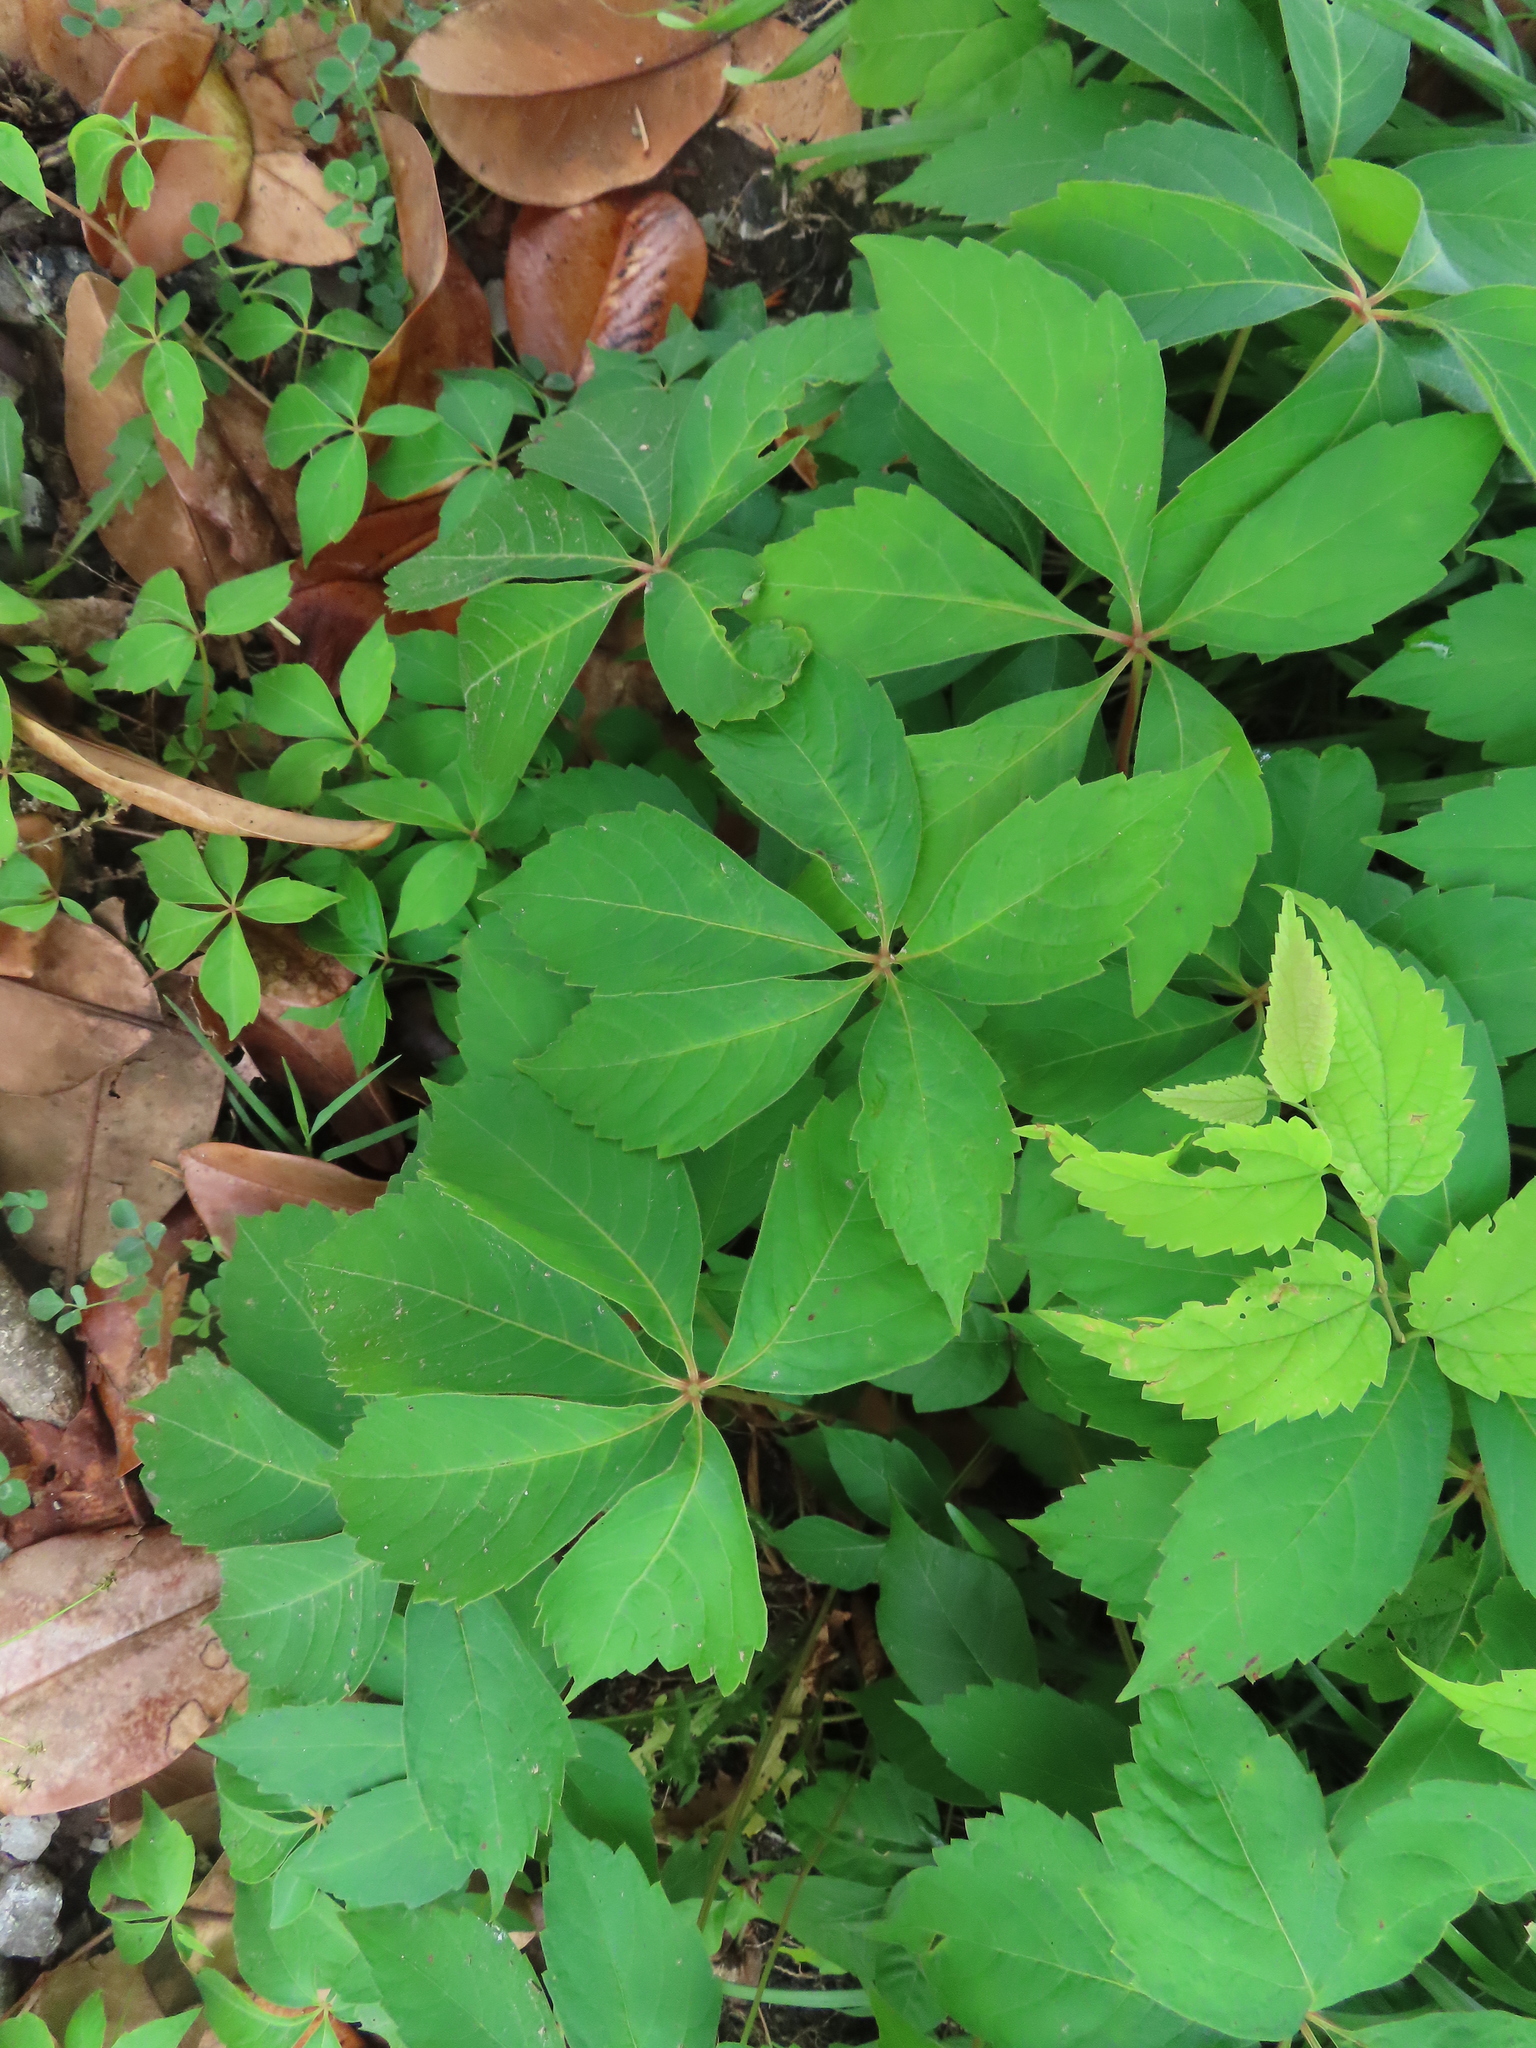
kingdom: Plantae
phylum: Tracheophyta
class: Magnoliopsida
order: Vitales
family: Vitaceae
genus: Parthenocissus
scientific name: Parthenocissus quinquefolia
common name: Virginia-creeper
